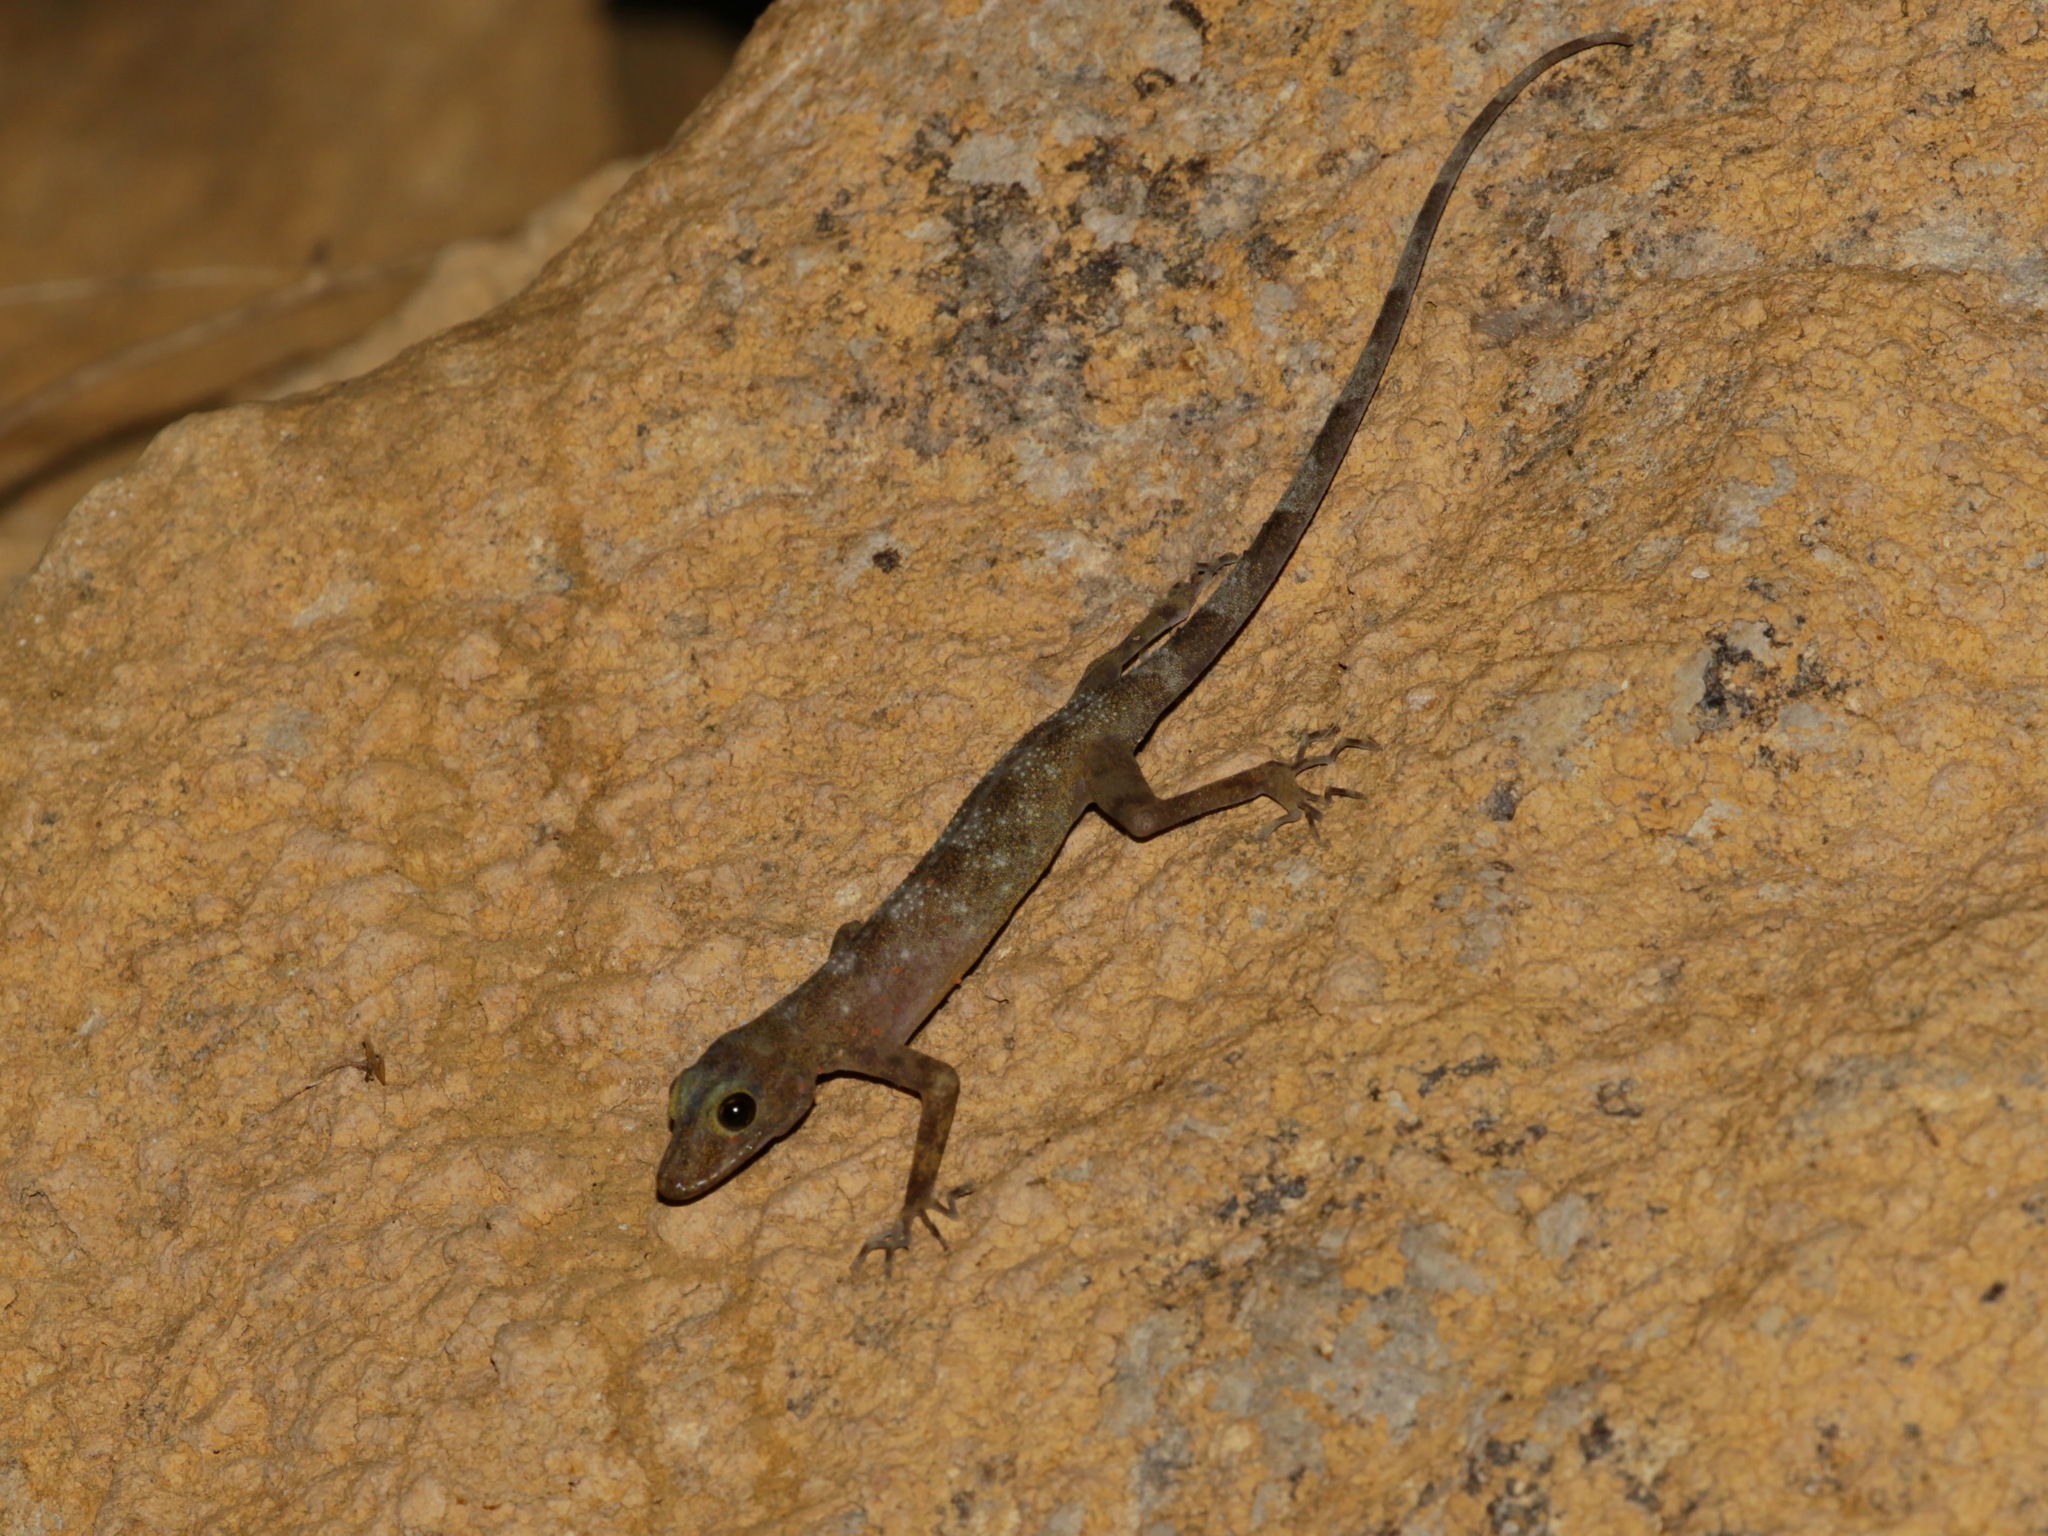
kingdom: Animalia
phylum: Chordata
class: Squamata
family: Gekkonidae
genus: Cnemaspis
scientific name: Cnemaspis niyomwanae
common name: Niyomwan’s rock gecko
